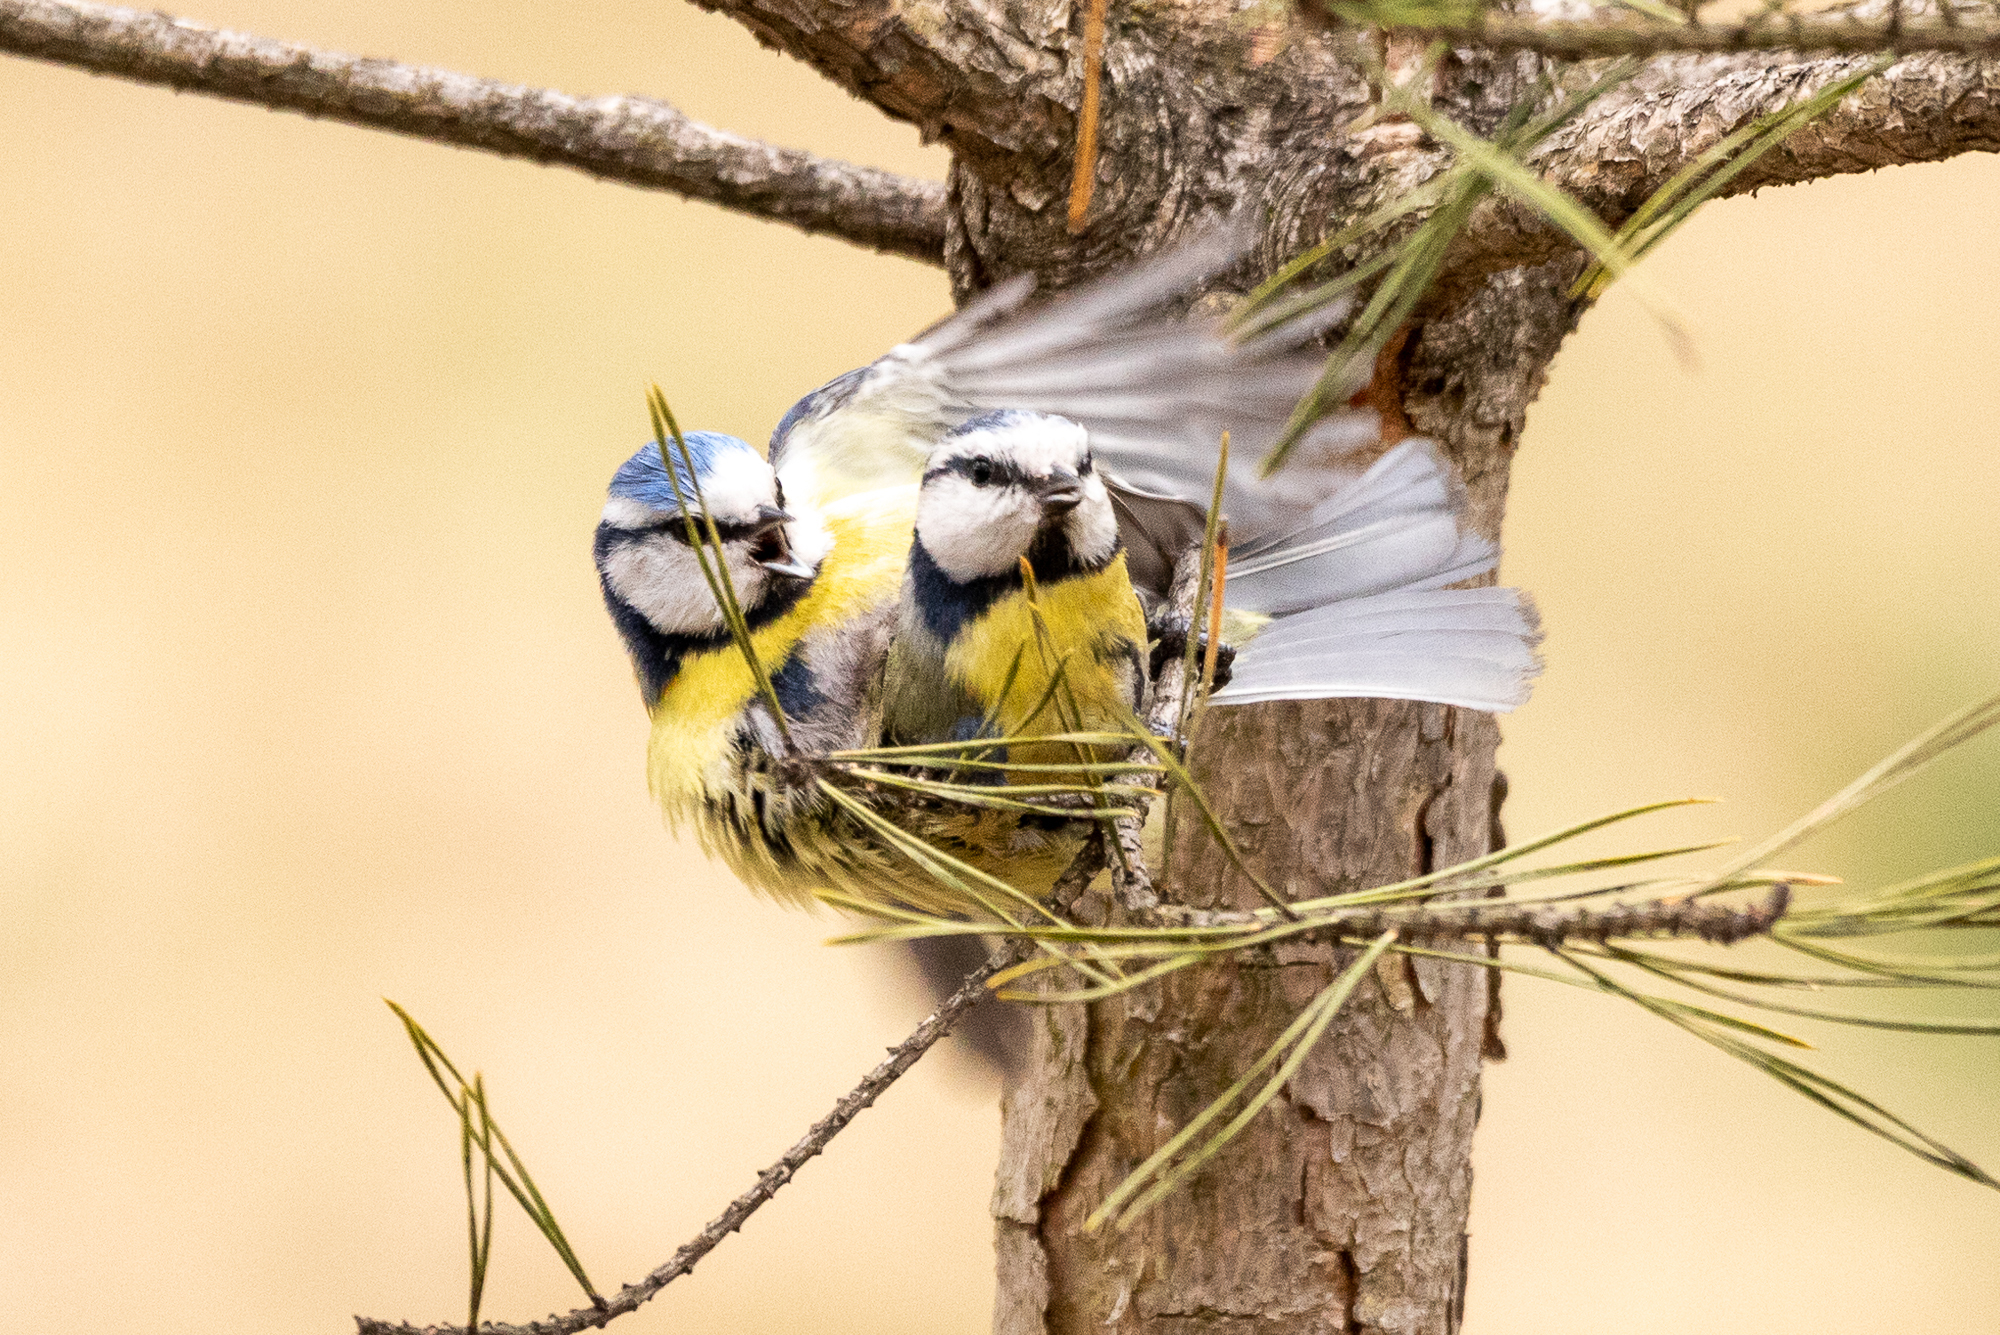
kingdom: Animalia
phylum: Chordata
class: Aves
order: Passeriformes
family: Paridae
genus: Cyanistes
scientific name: Cyanistes caeruleus
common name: Eurasian blue tit
